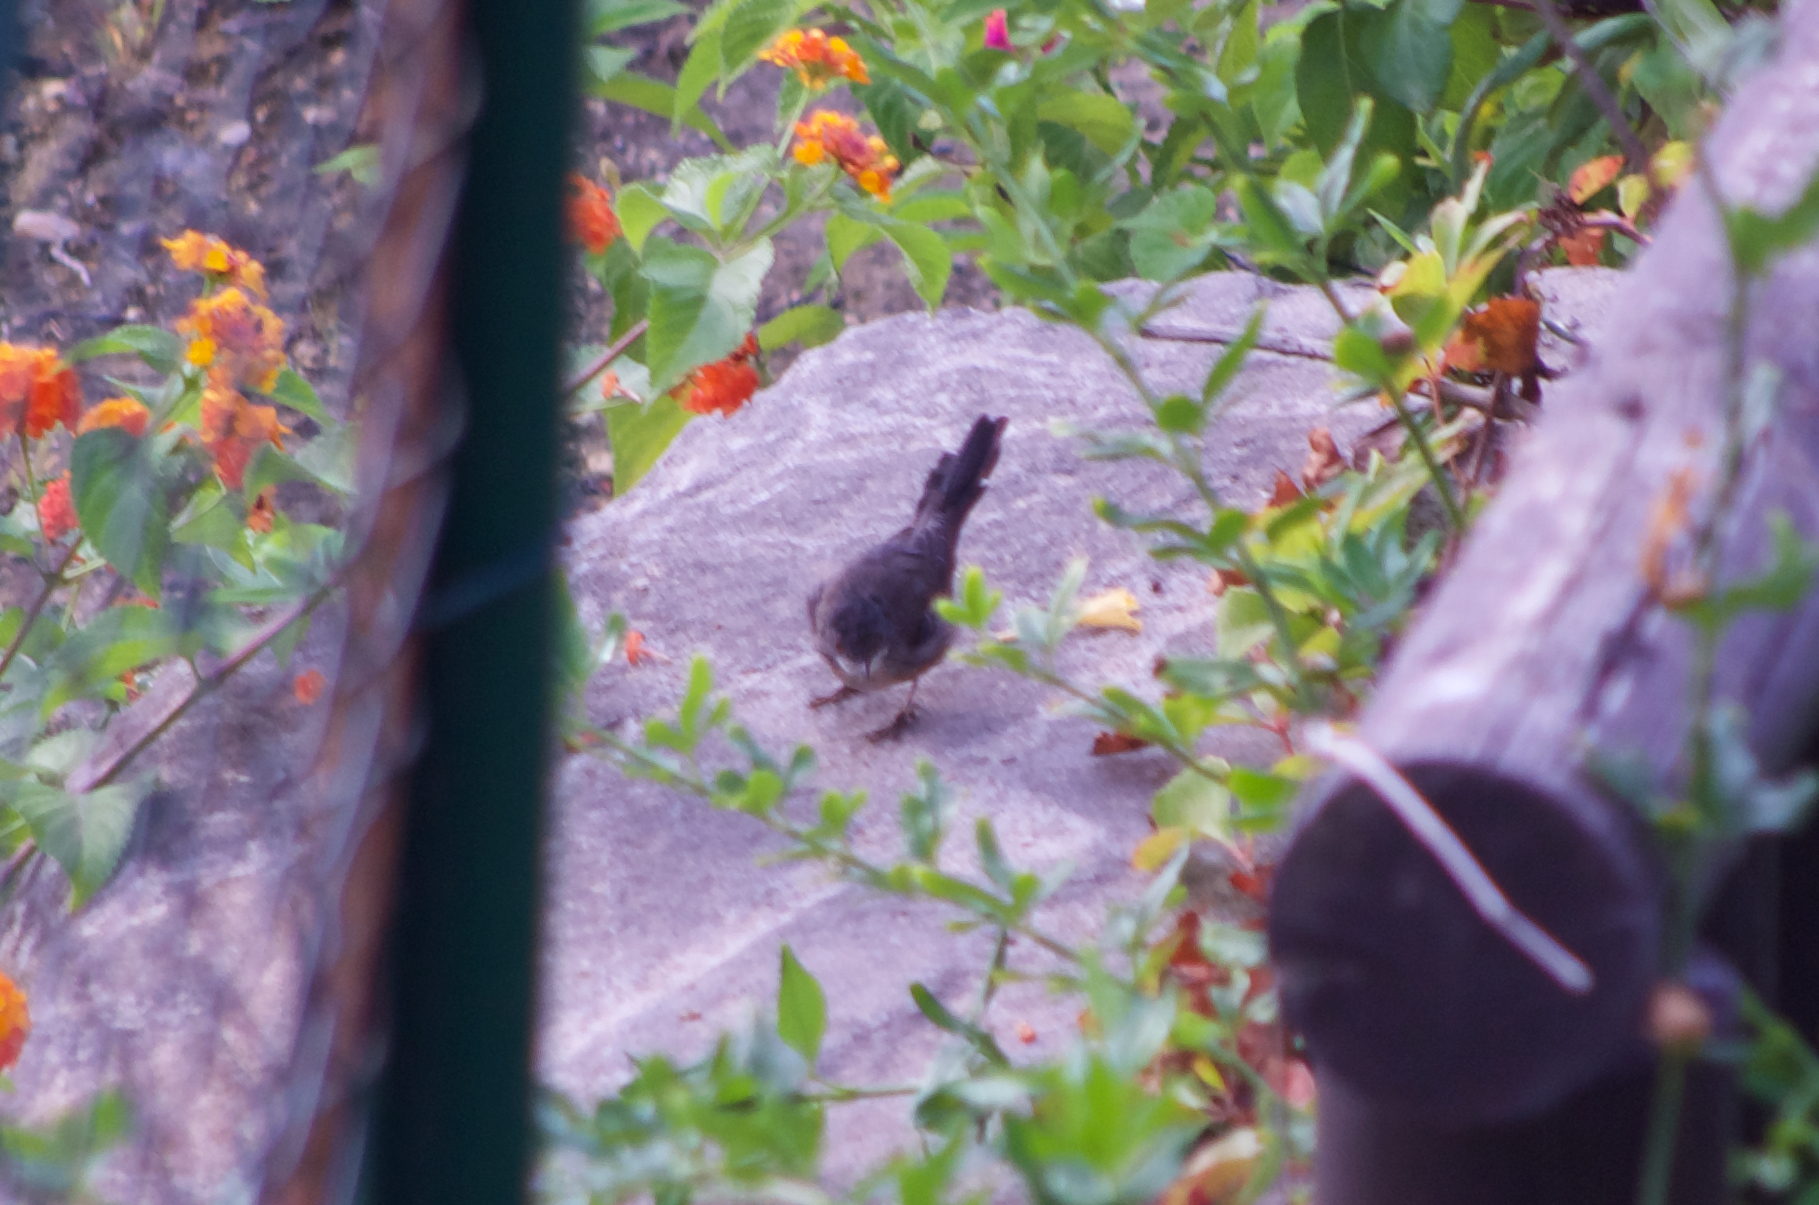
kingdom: Animalia
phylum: Chordata
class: Aves
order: Passeriformes
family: Sylviidae
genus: Curruca
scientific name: Curruca melanocephala
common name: Sardinian warbler
